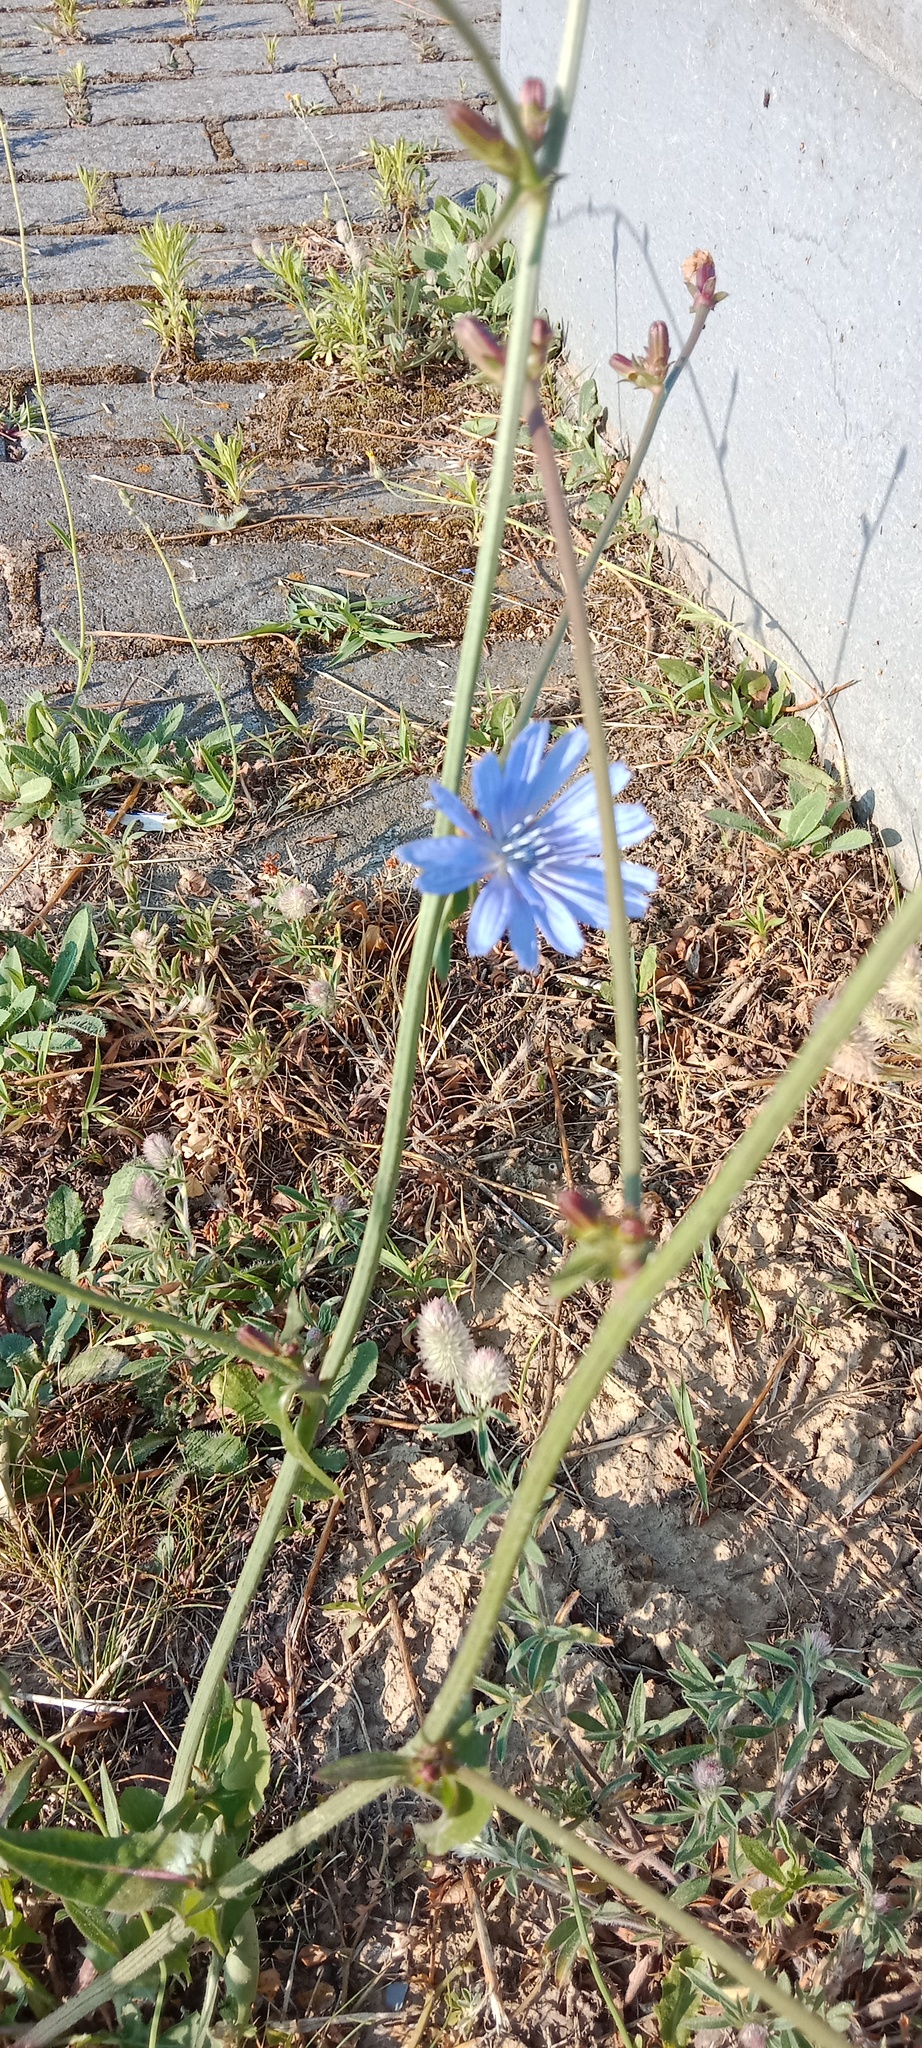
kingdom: Plantae
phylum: Tracheophyta
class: Magnoliopsida
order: Asterales
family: Asteraceae
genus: Cichorium
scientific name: Cichorium intybus
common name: Chicory
